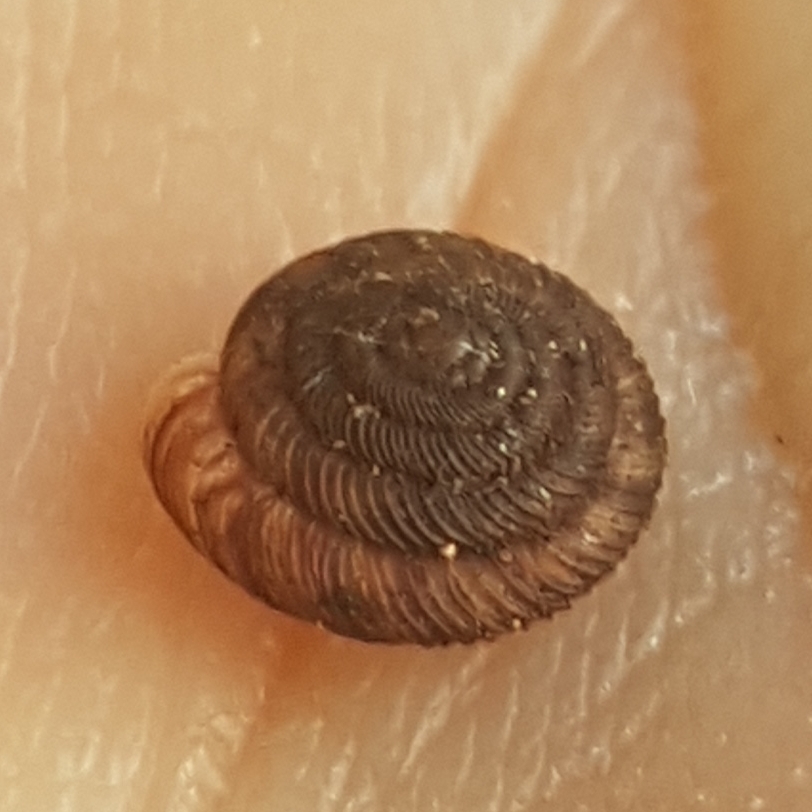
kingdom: Animalia
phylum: Mollusca
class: Gastropoda
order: Stylommatophora
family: Discidae
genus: Discus
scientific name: Discus rotundatus
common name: Rounded snail
